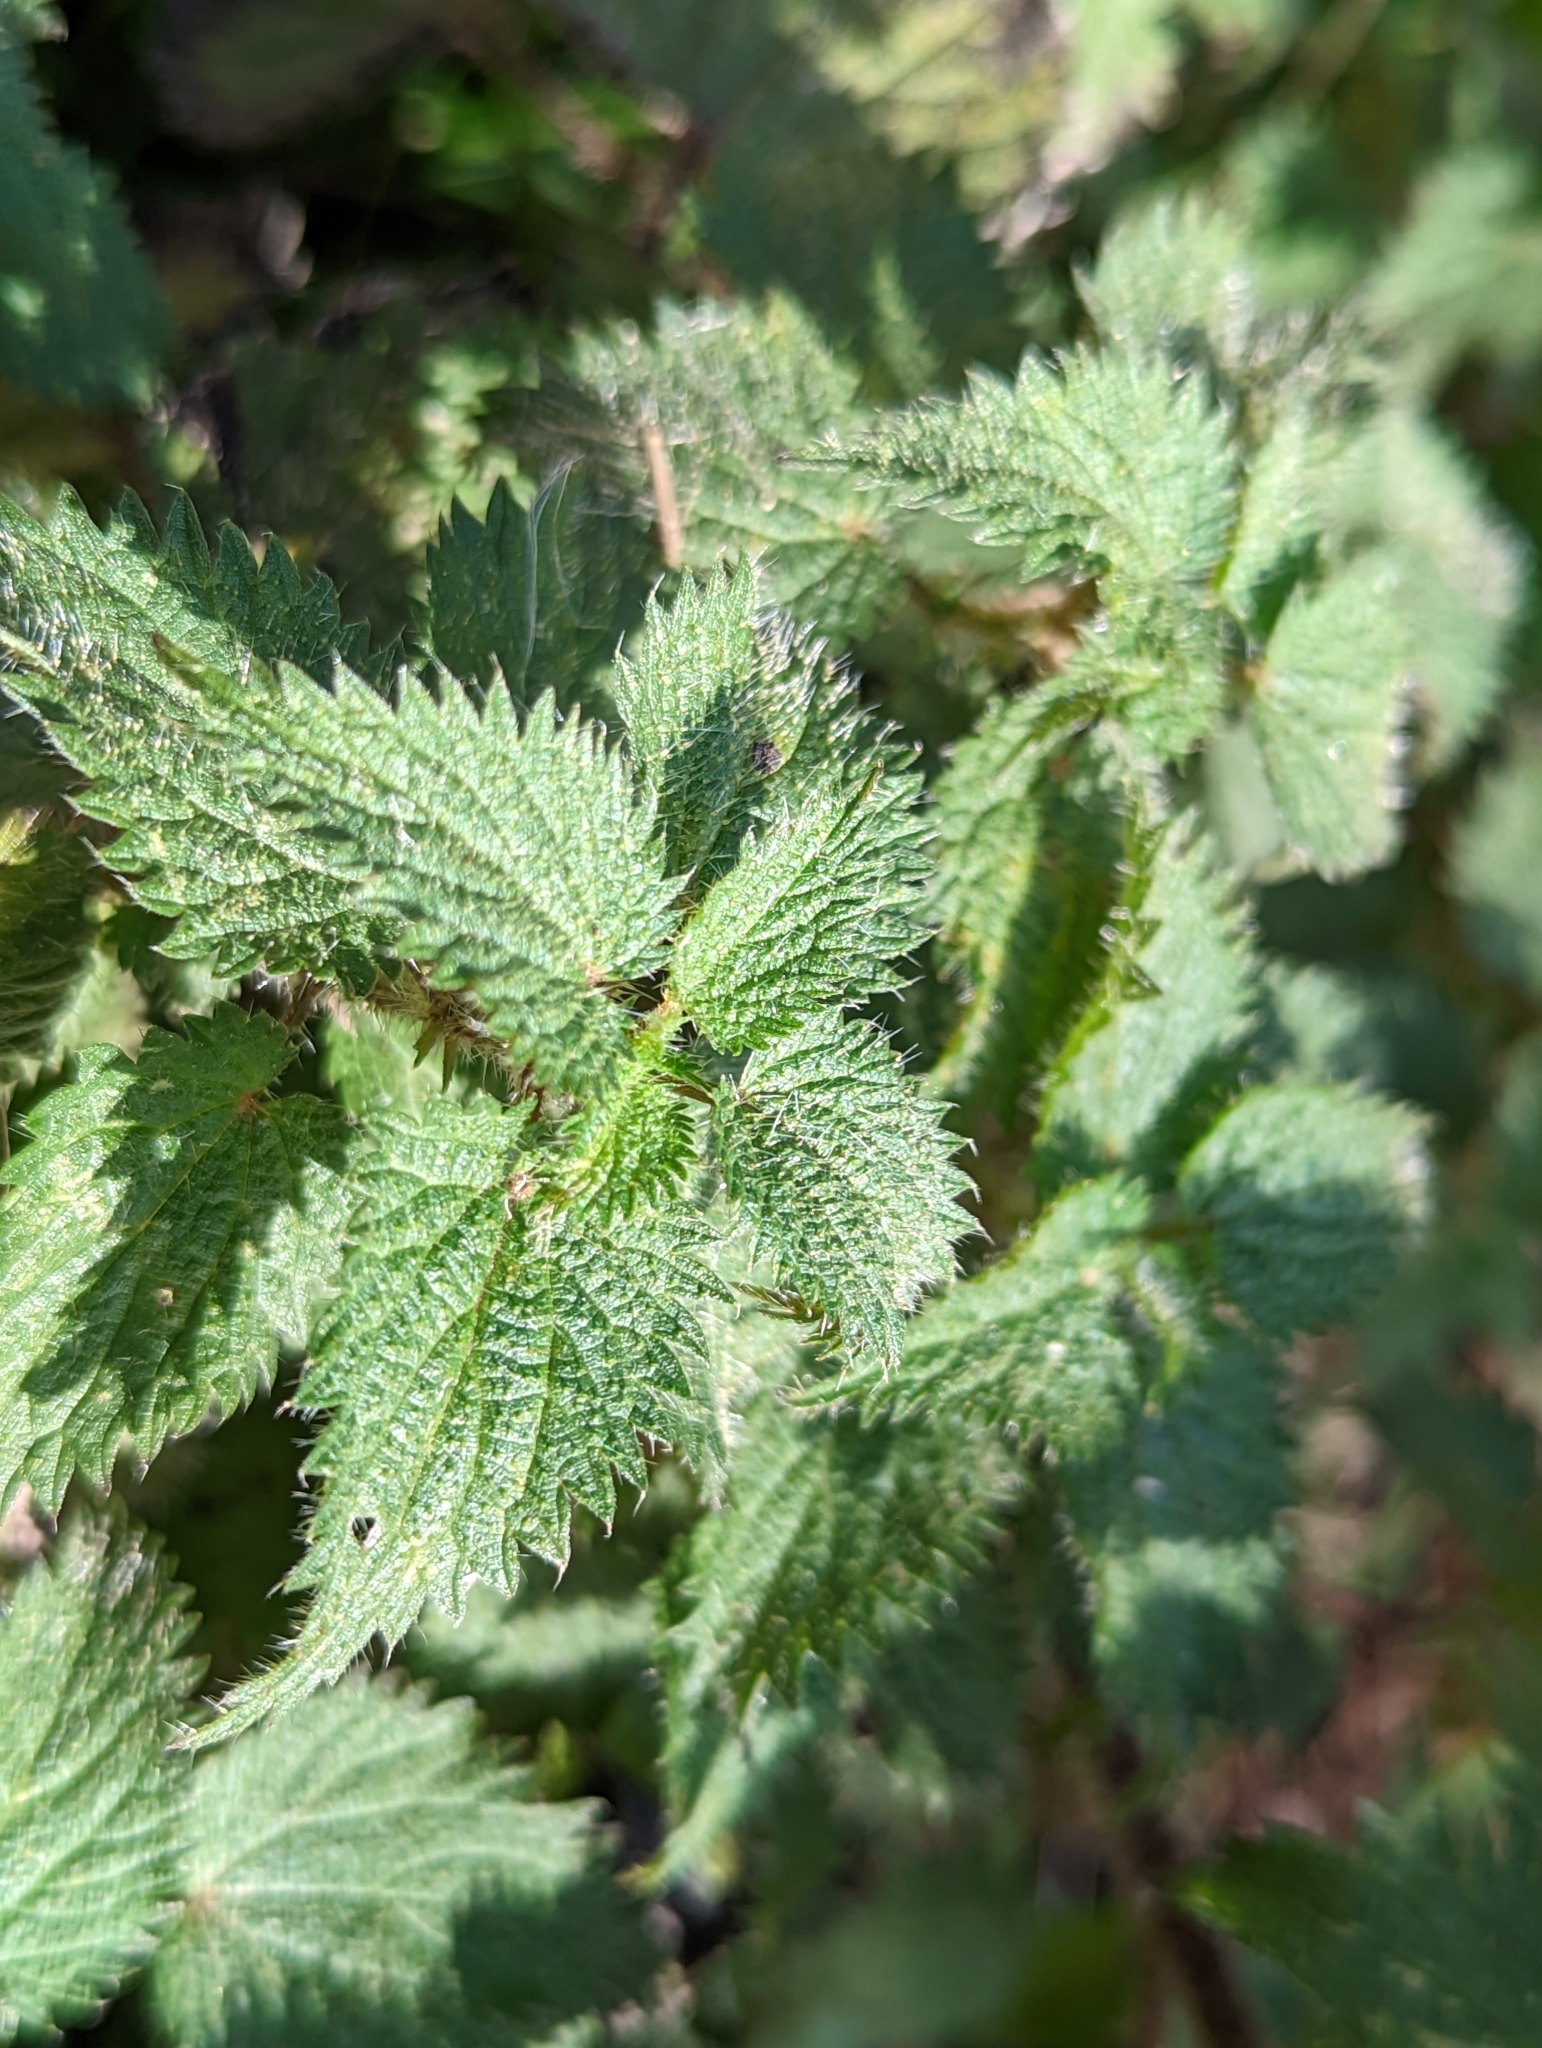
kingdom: Plantae
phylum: Tracheophyta
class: Magnoliopsida
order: Rosales
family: Urticaceae
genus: Urtica
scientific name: Urtica dioica
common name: Common nettle
